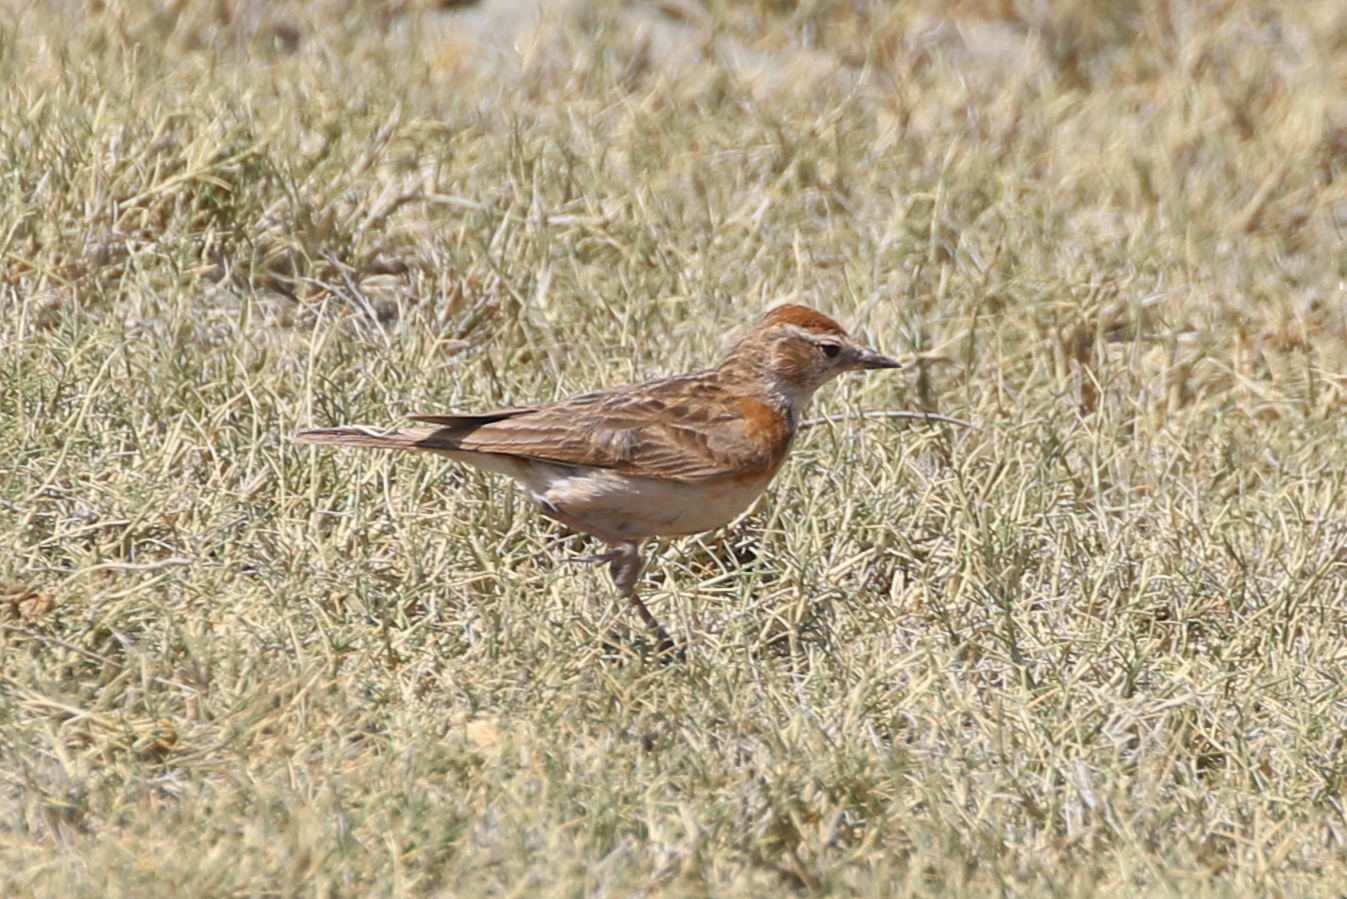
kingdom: Animalia
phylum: Chordata
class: Aves
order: Passeriformes
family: Alaudidae
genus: Calandrella
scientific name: Calandrella cinerea
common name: Red-capped lark
